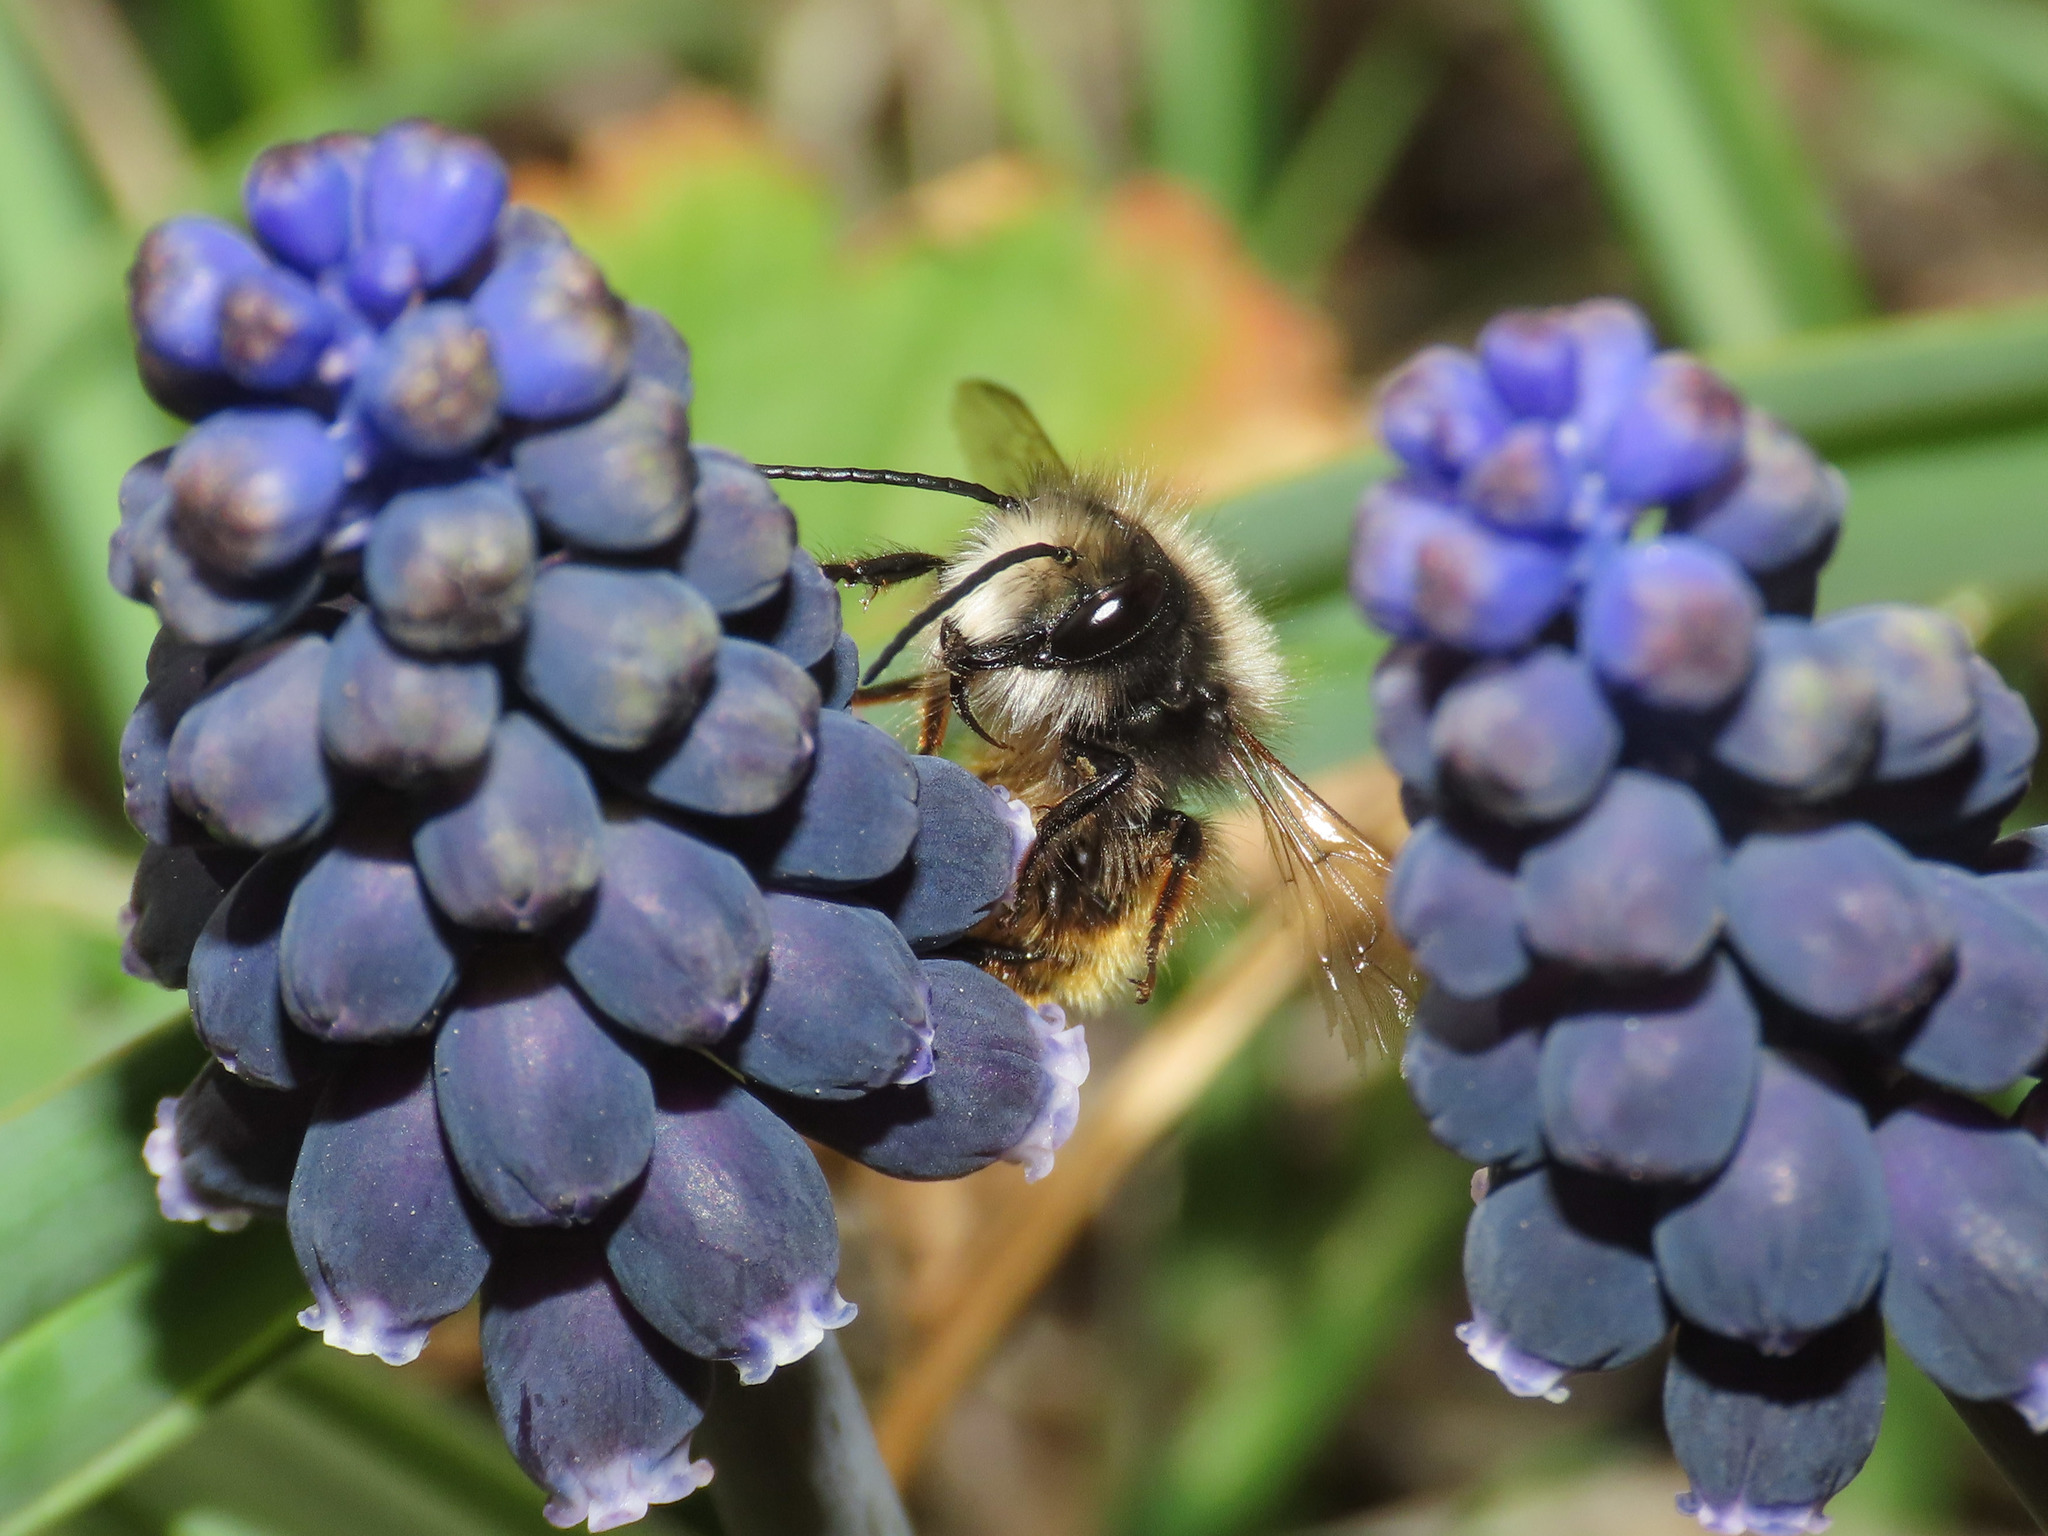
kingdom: Animalia
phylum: Arthropoda
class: Insecta
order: Hymenoptera
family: Megachilidae
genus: Osmia
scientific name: Osmia cornuta
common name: Mason bee
